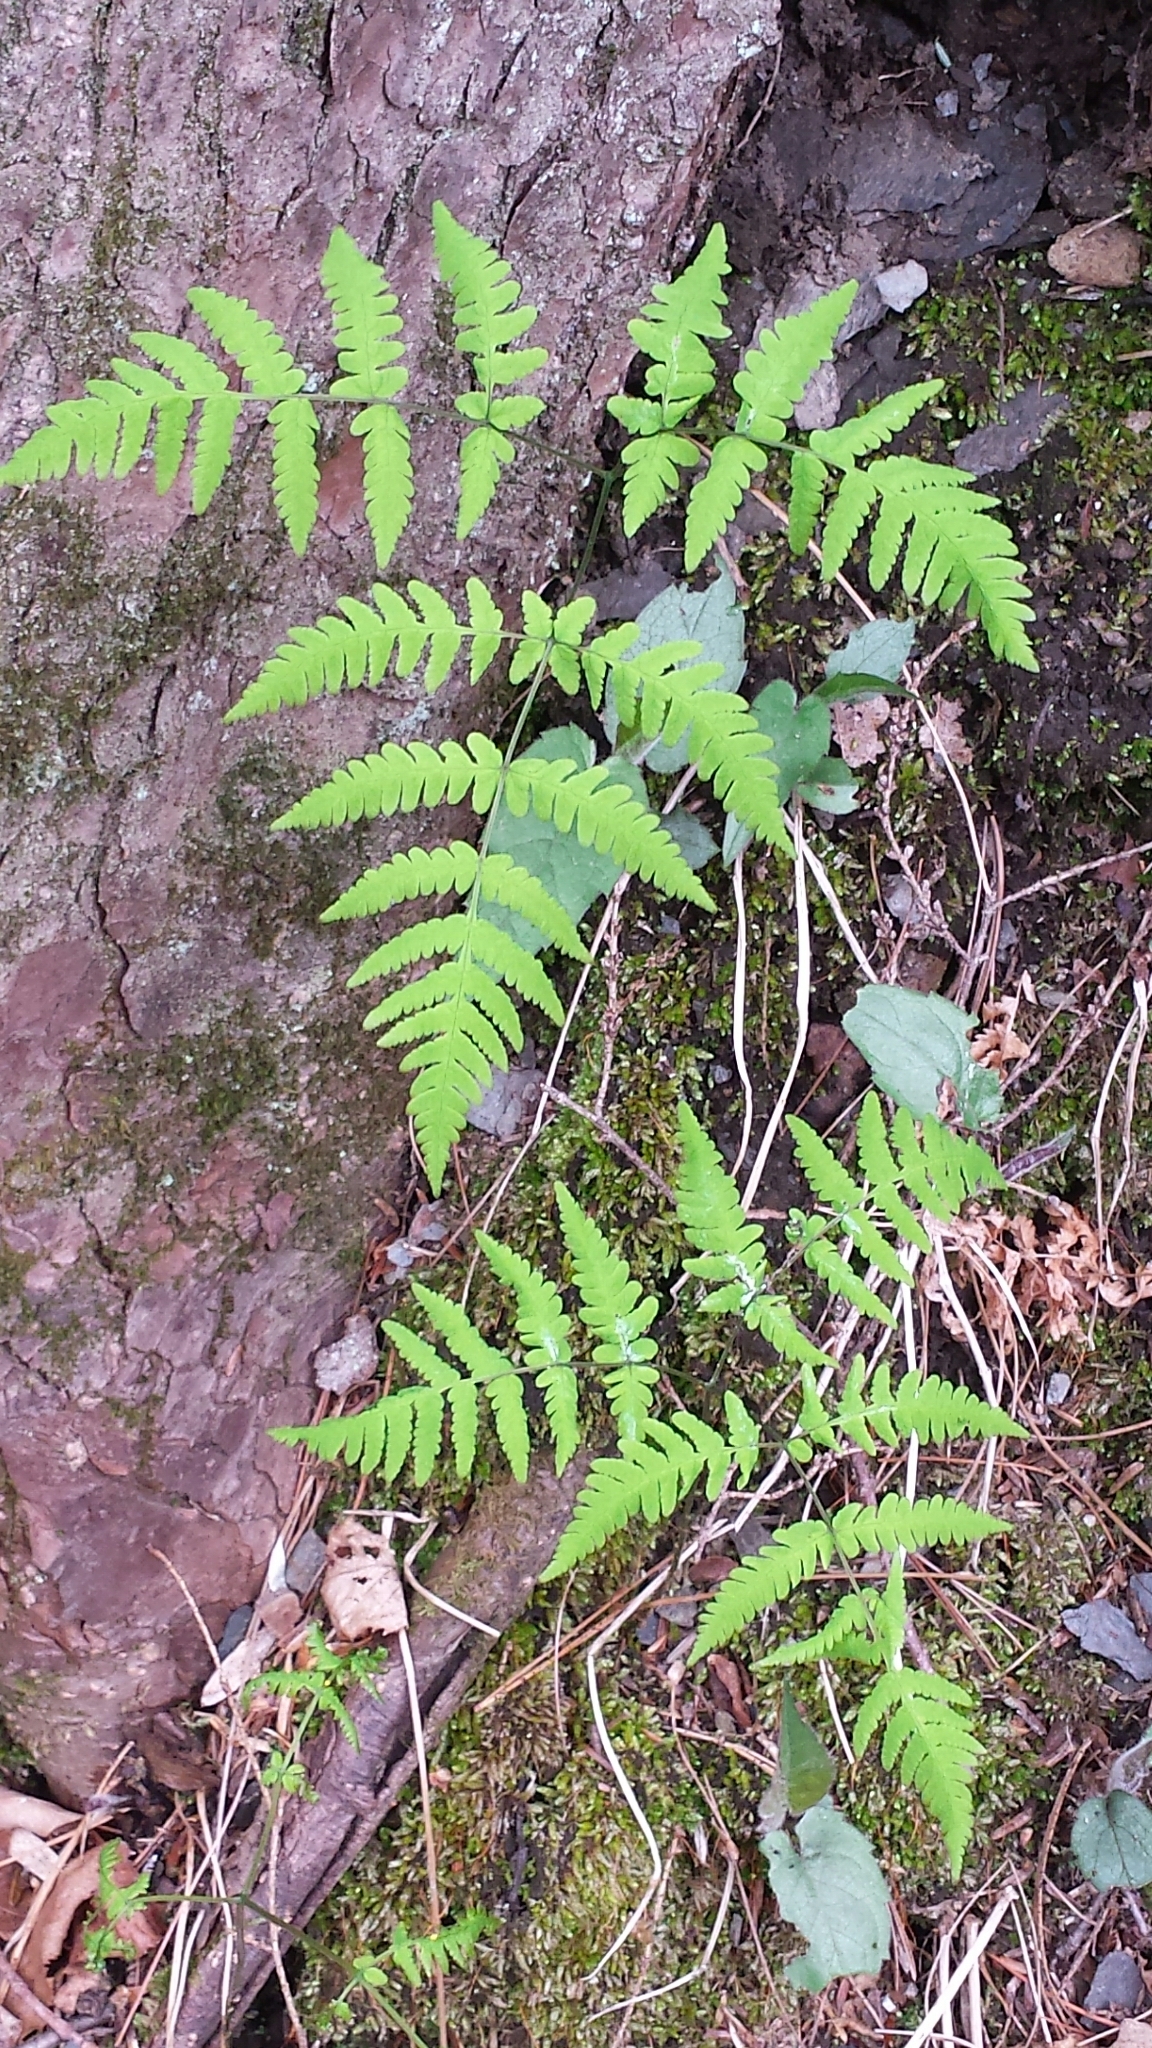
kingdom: Plantae
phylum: Tracheophyta
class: Polypodiopsida
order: Polypodiales
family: Cystopteridaceae
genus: Gymnocarpium
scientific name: Gymnocarpium dryopteris
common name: Oak fern
